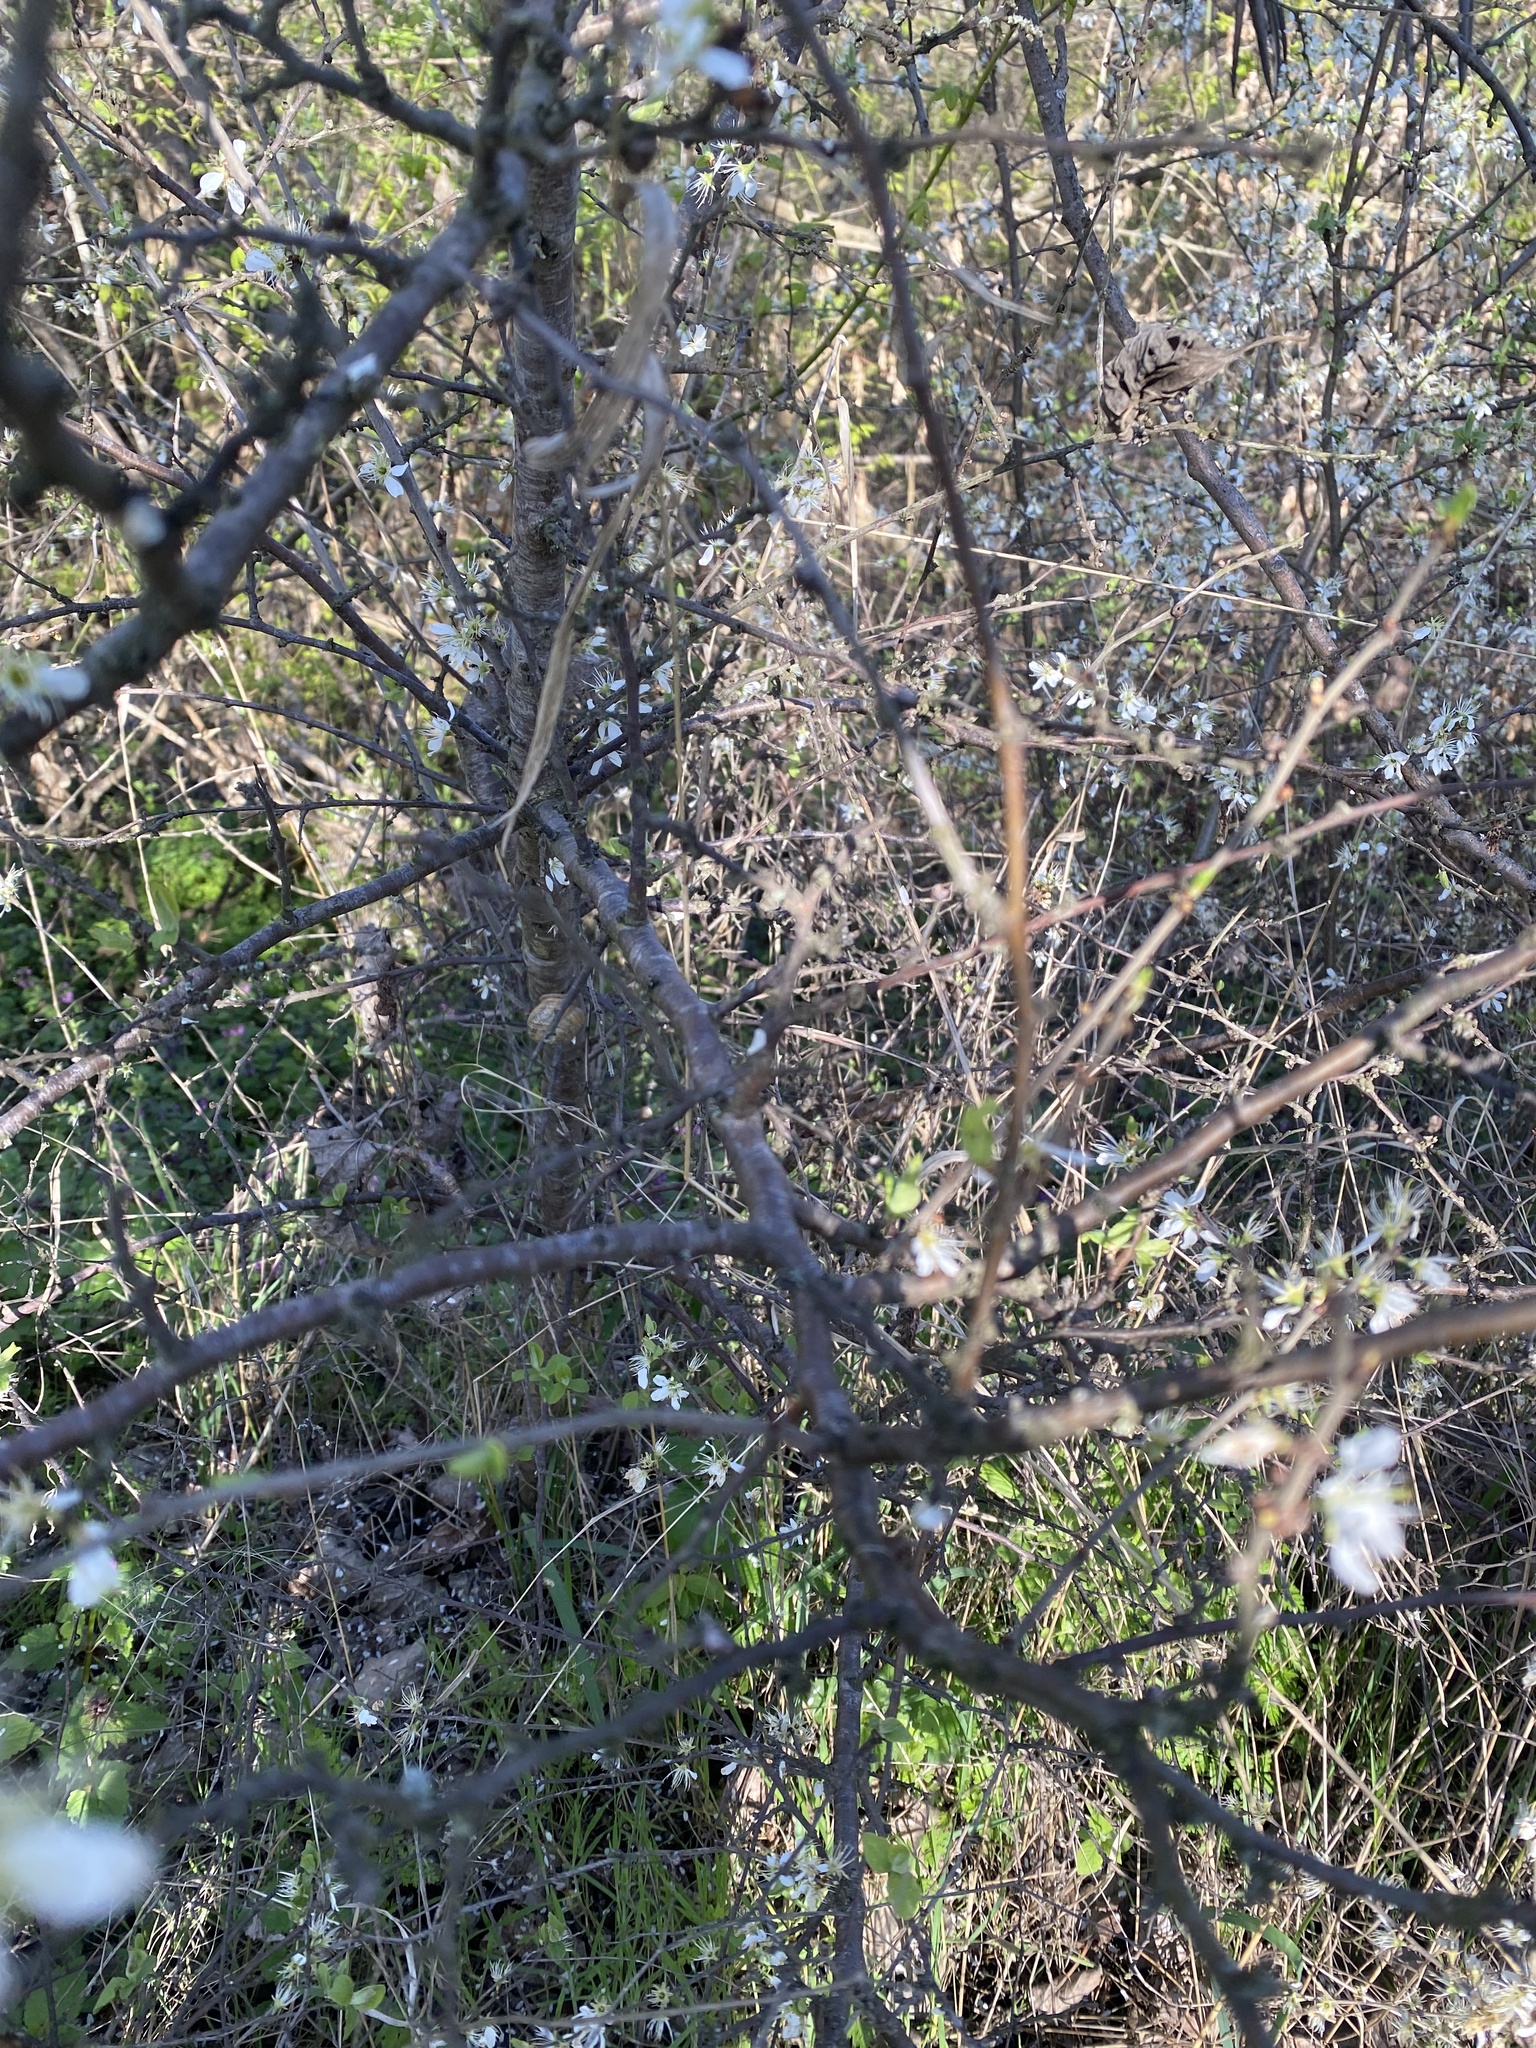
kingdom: Plantae
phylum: Tracheophyta
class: Magnoliopsida
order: Rosales
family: Rosaceae
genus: Prunus
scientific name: Prunus spinosa
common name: Blackthorn
